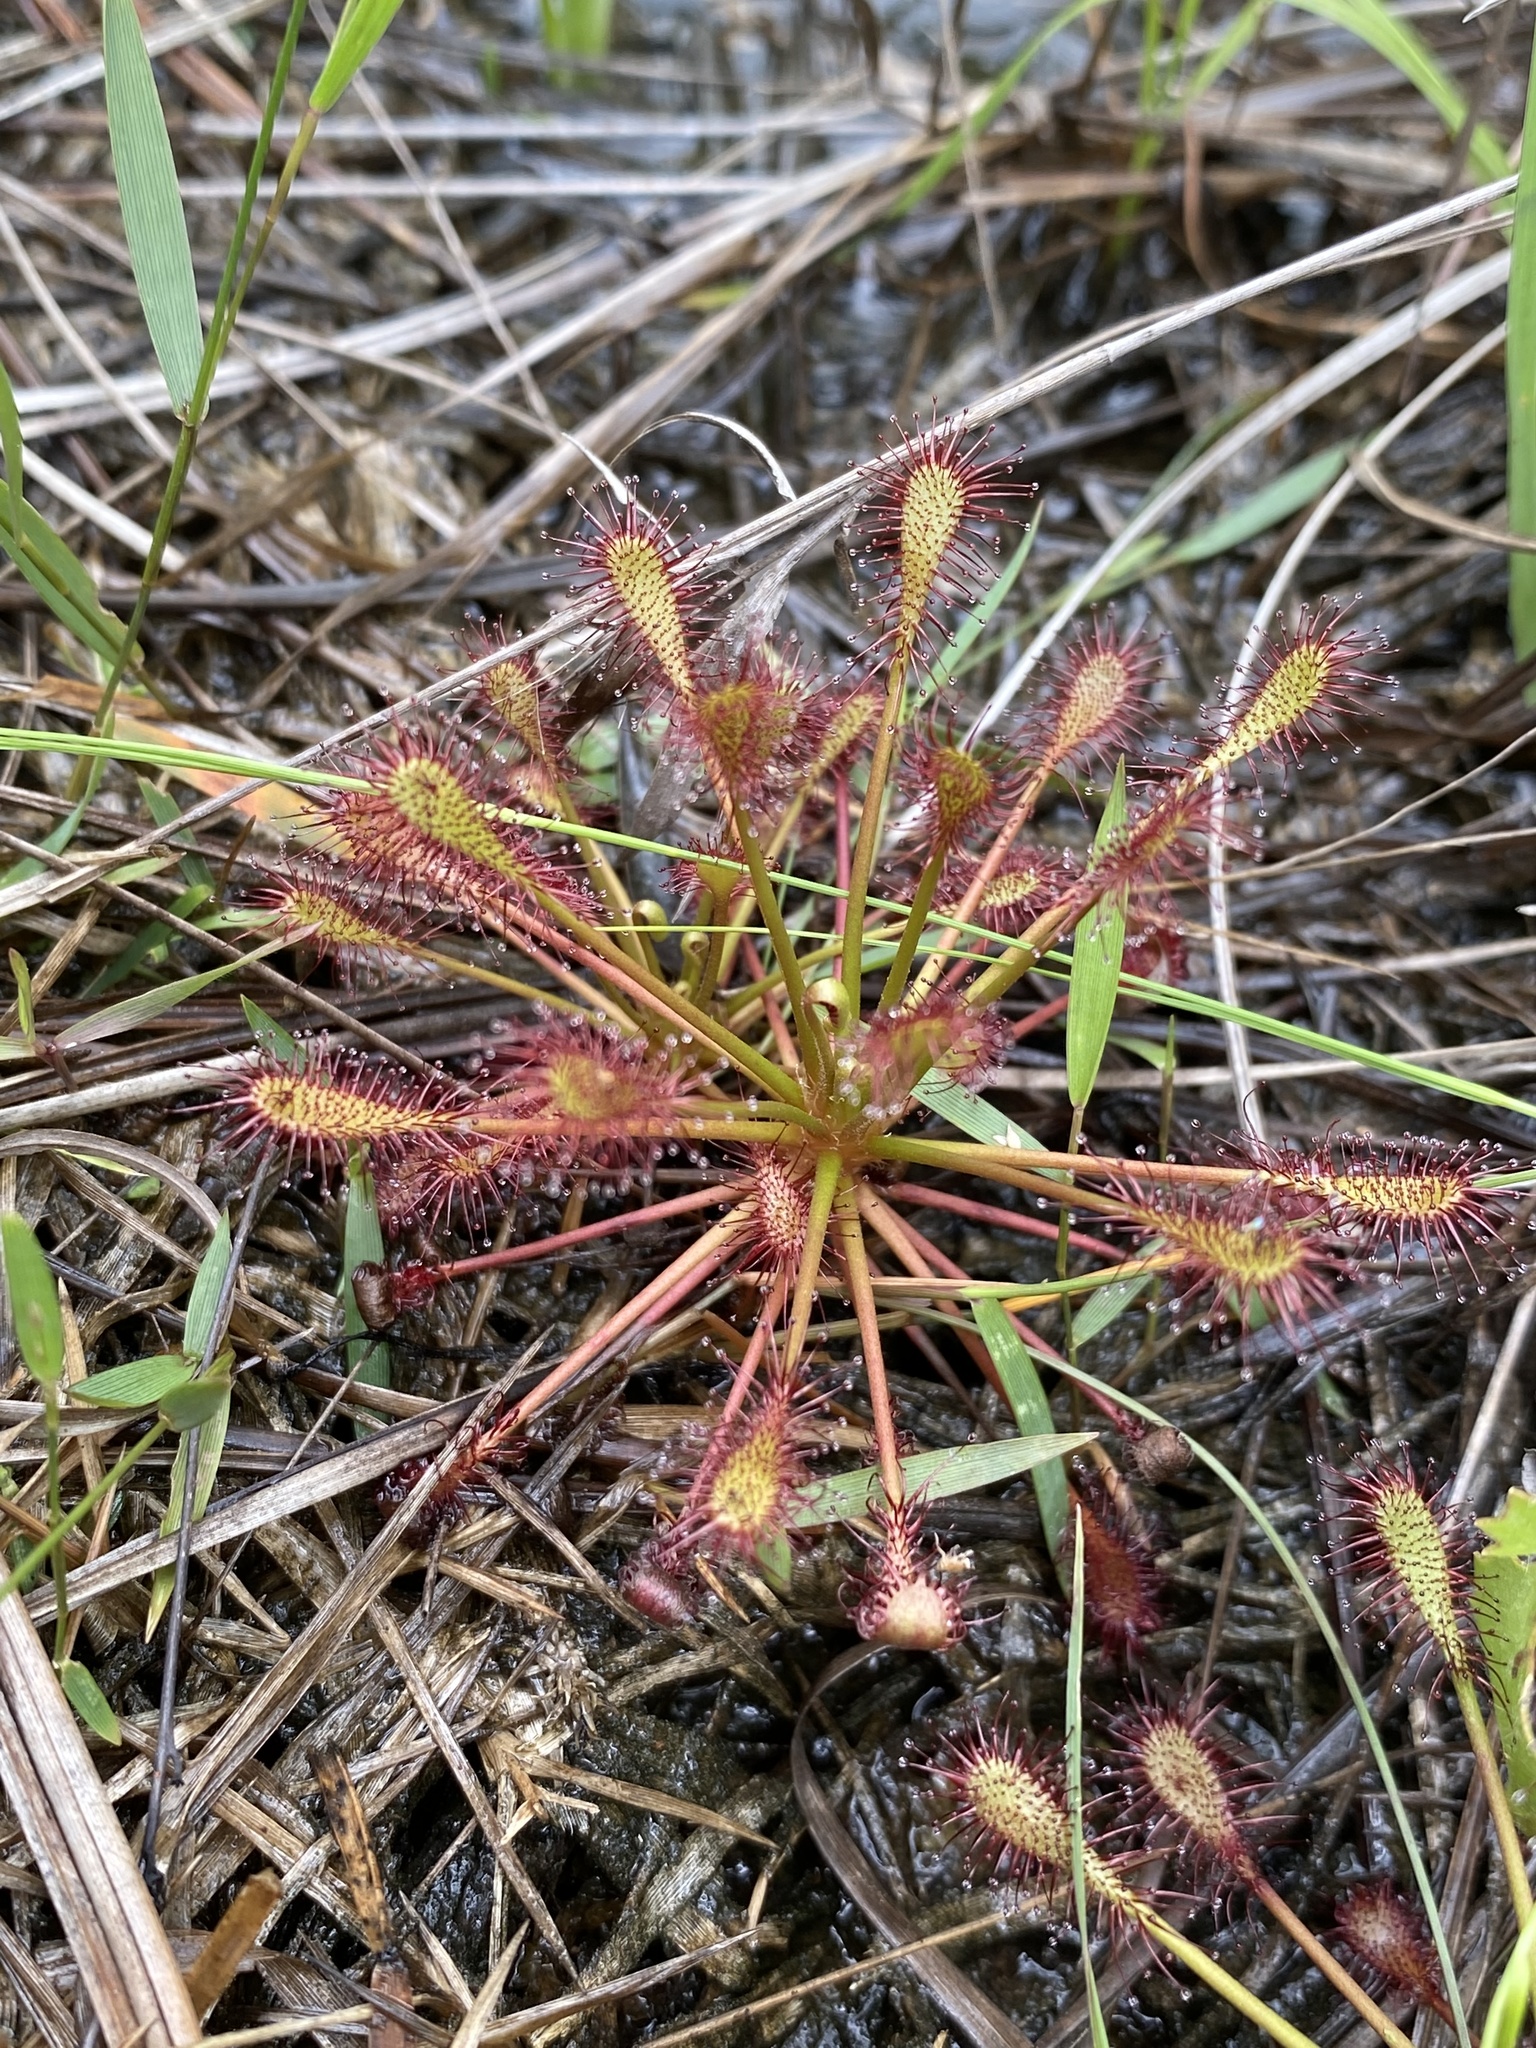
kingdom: Plantae
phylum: Tracheophyta
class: Magnoliopsida
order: Caryophyllales
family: Droseraceae
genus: Drosera
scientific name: Drosera intermedia
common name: Oblong-leaved sundew
